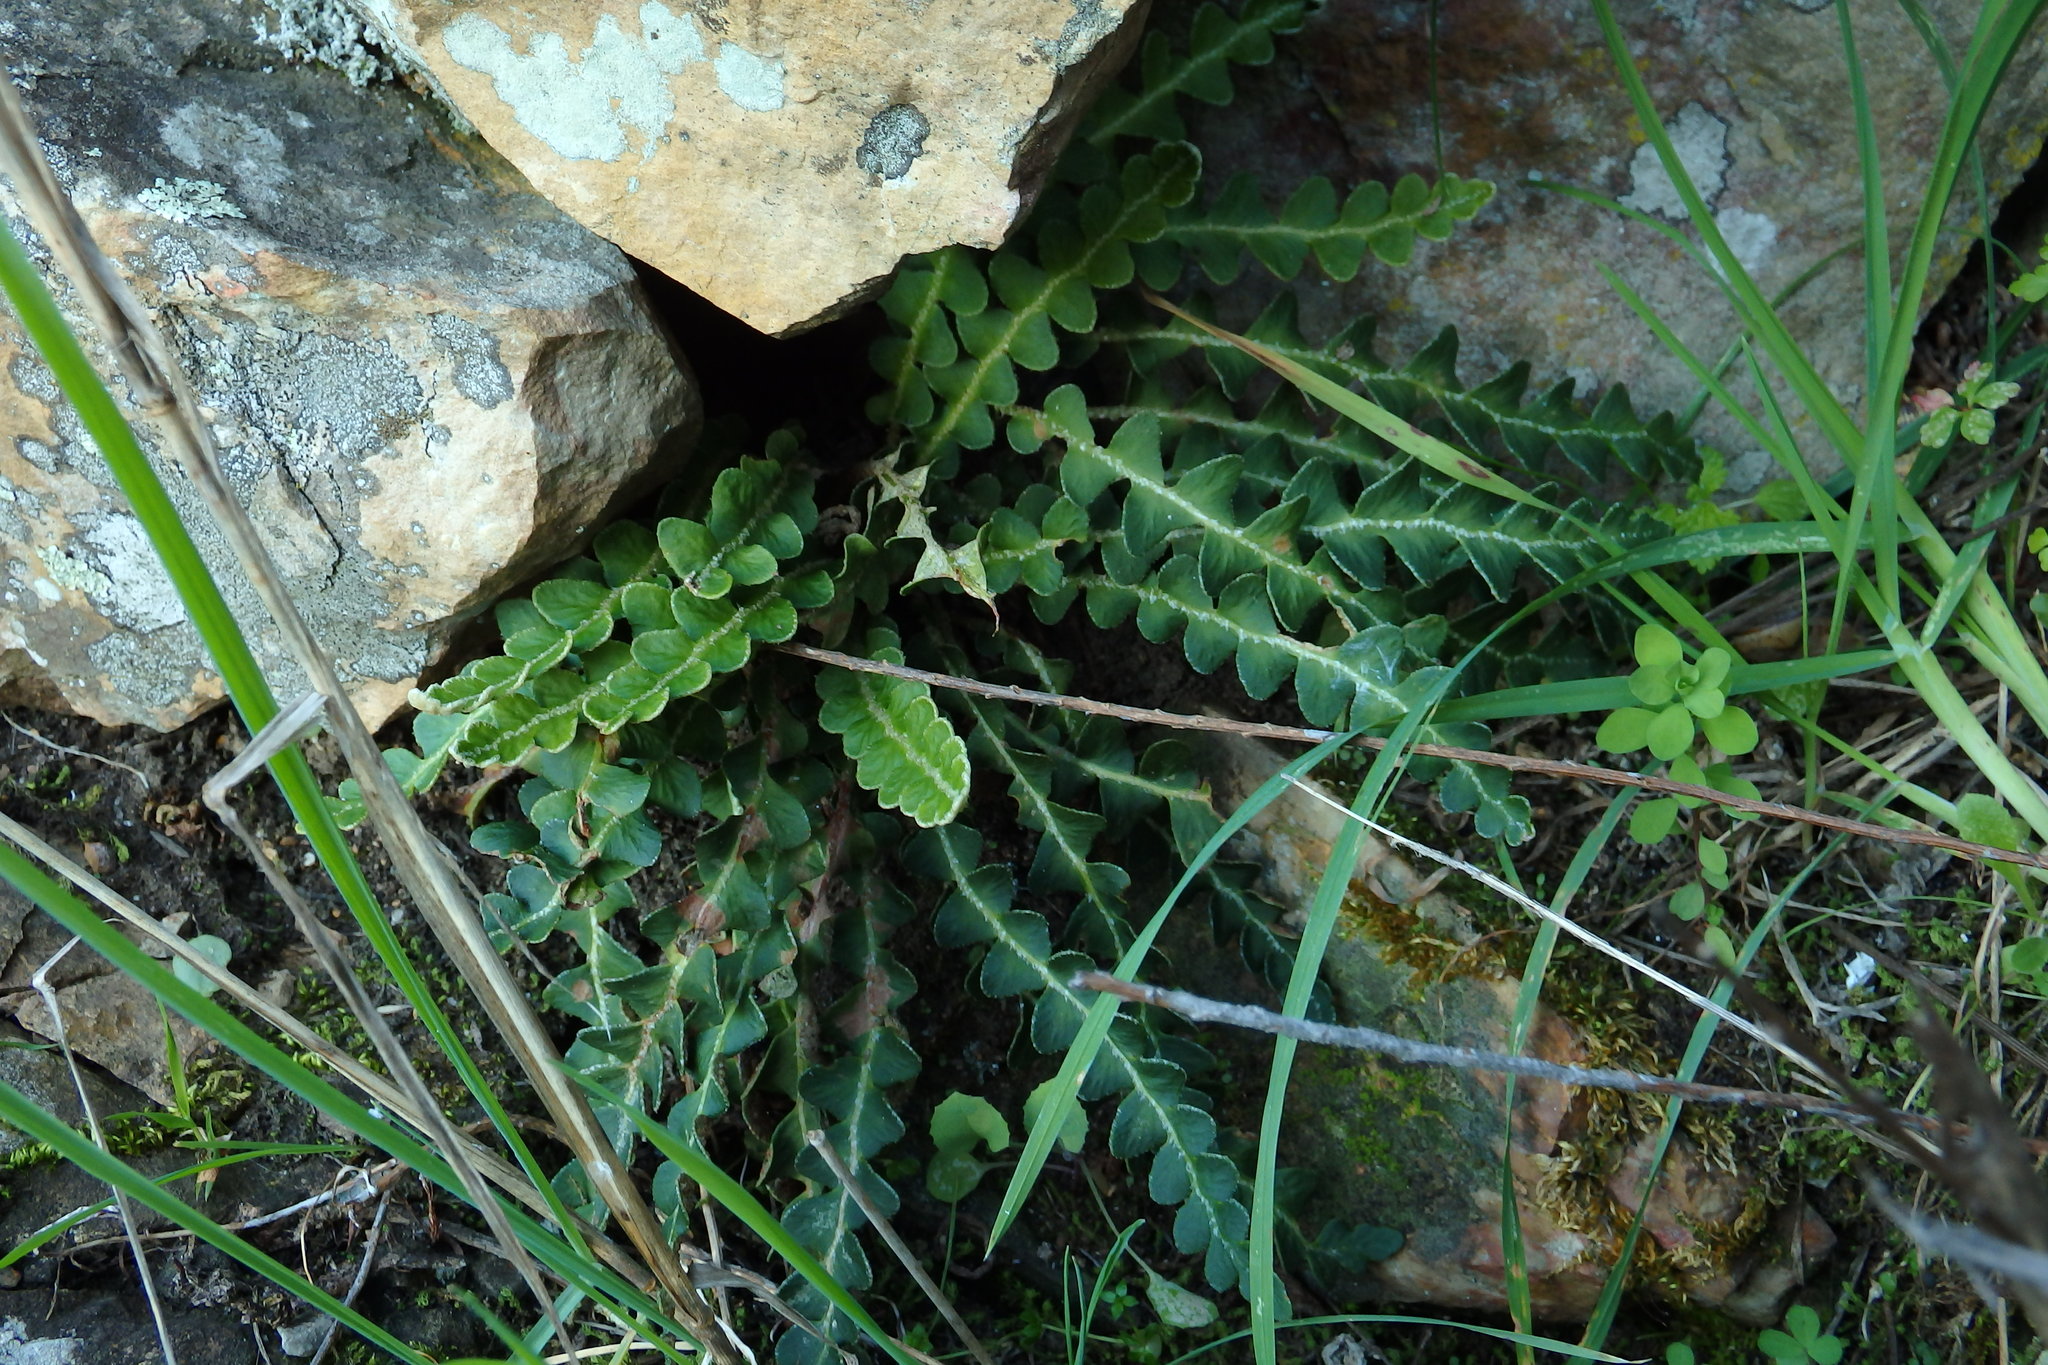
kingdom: Plantae
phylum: Tracheophyta
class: Polypodiopsida
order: Polypodiales
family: Aspleniaceae
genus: Asplenium
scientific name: Asplenium ceterach
